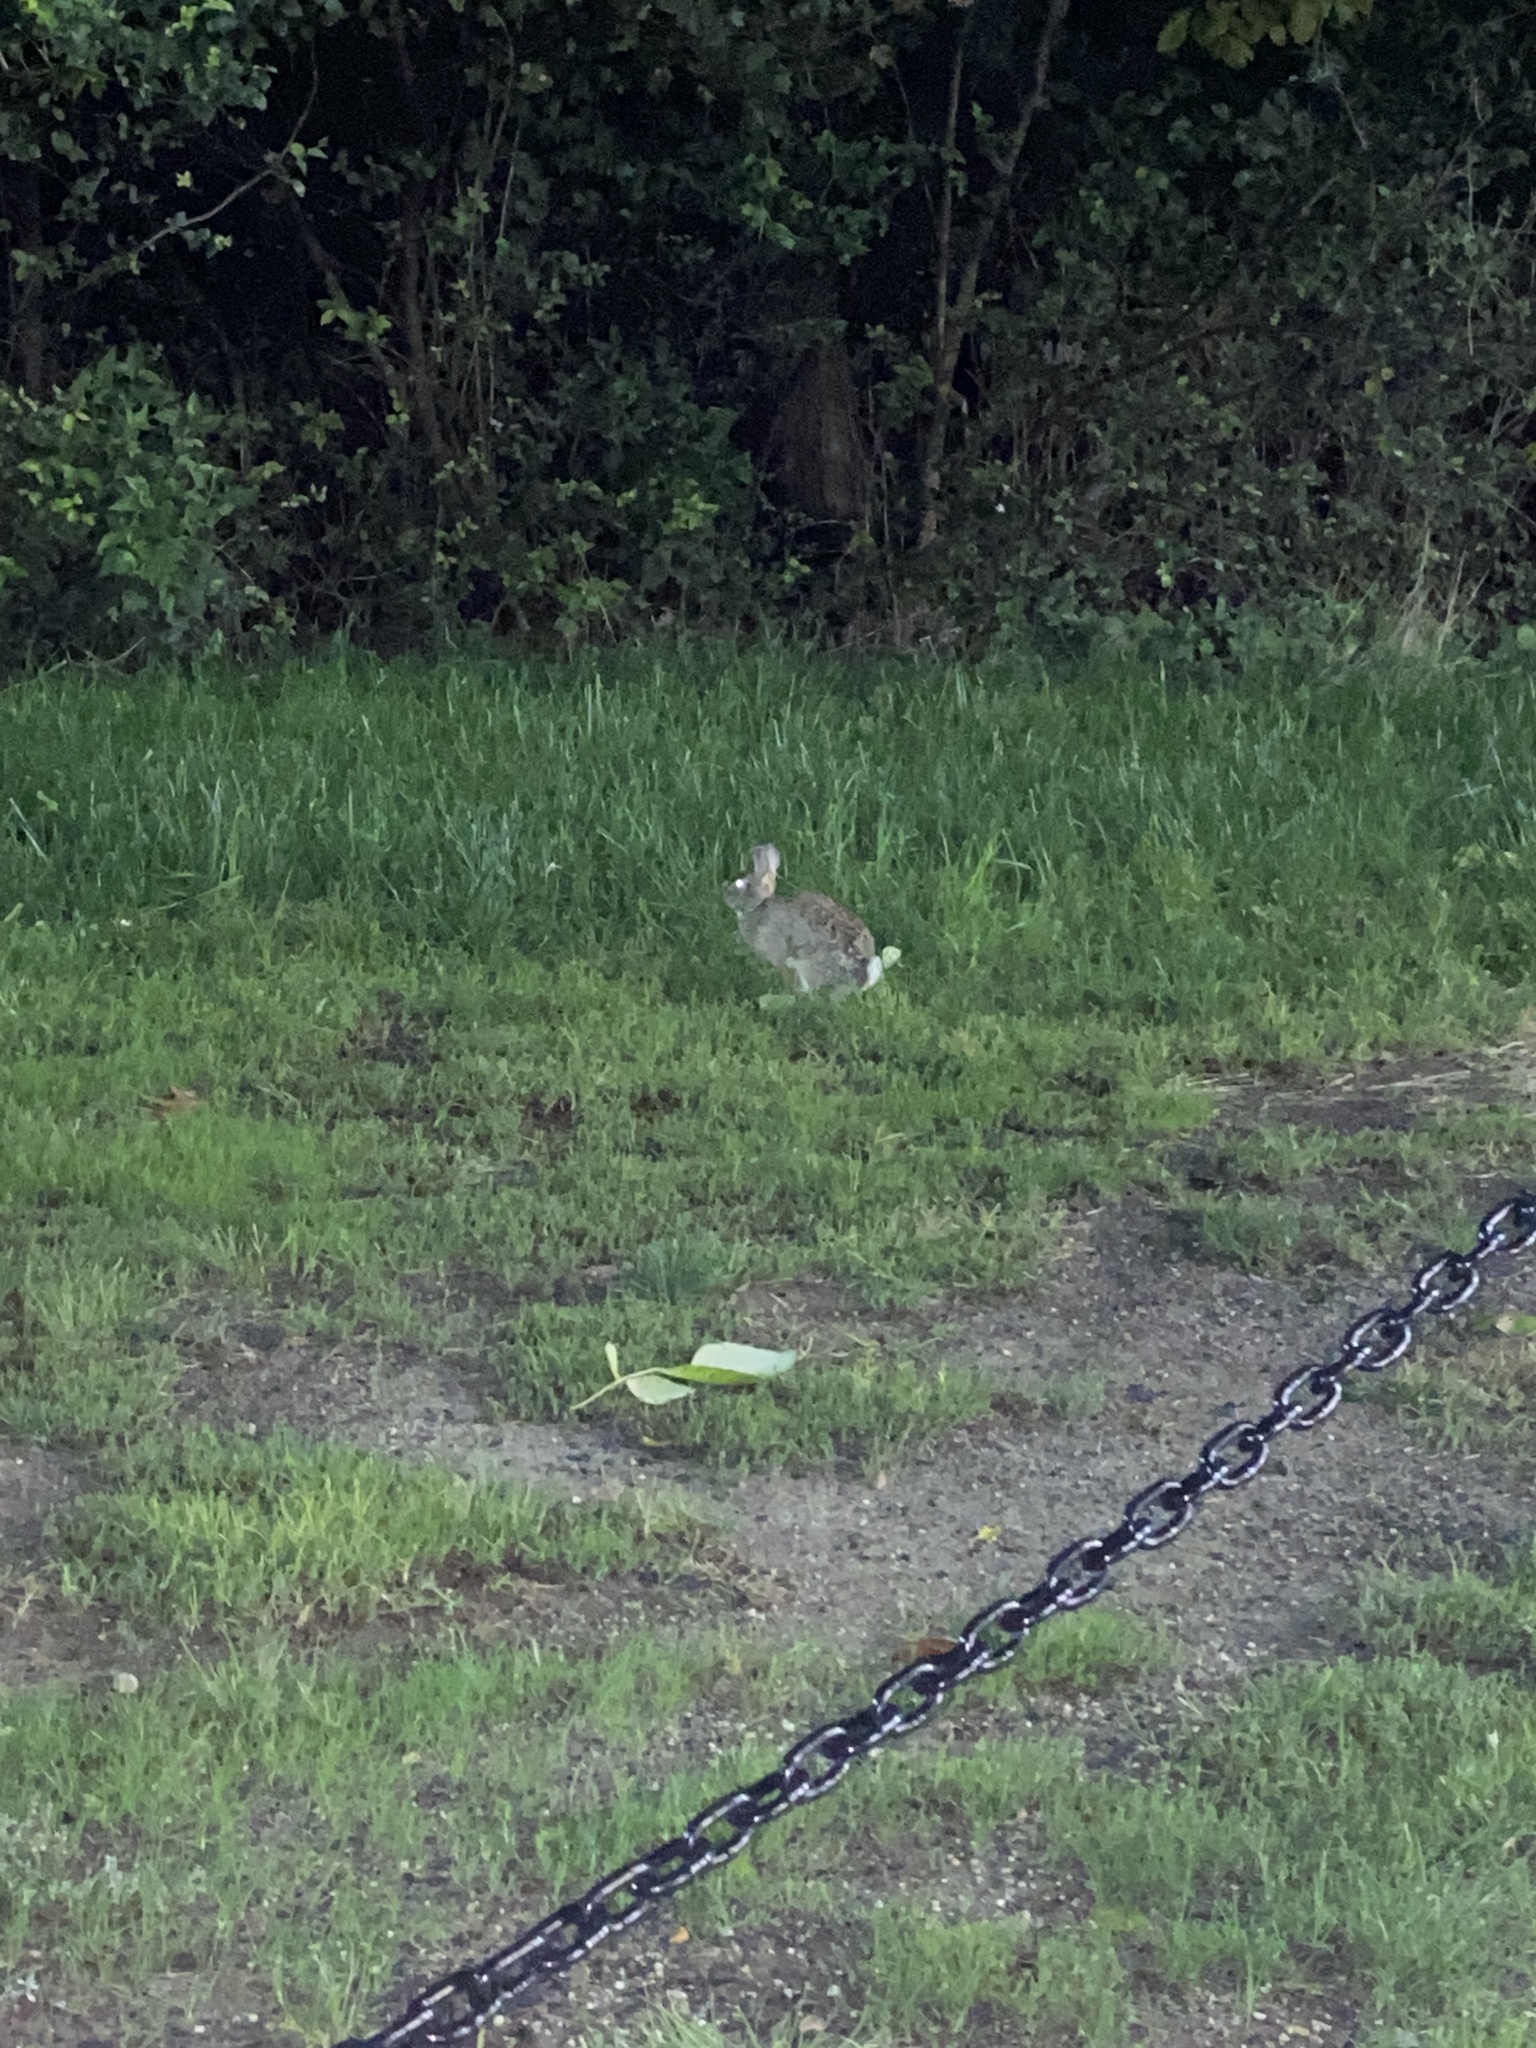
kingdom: Animalia
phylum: Chordata
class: Mammalia
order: Lagomorpha
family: Leporidae
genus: Sylvilagus
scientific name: Sylvilagus floridanus
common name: Eastern cottontail
